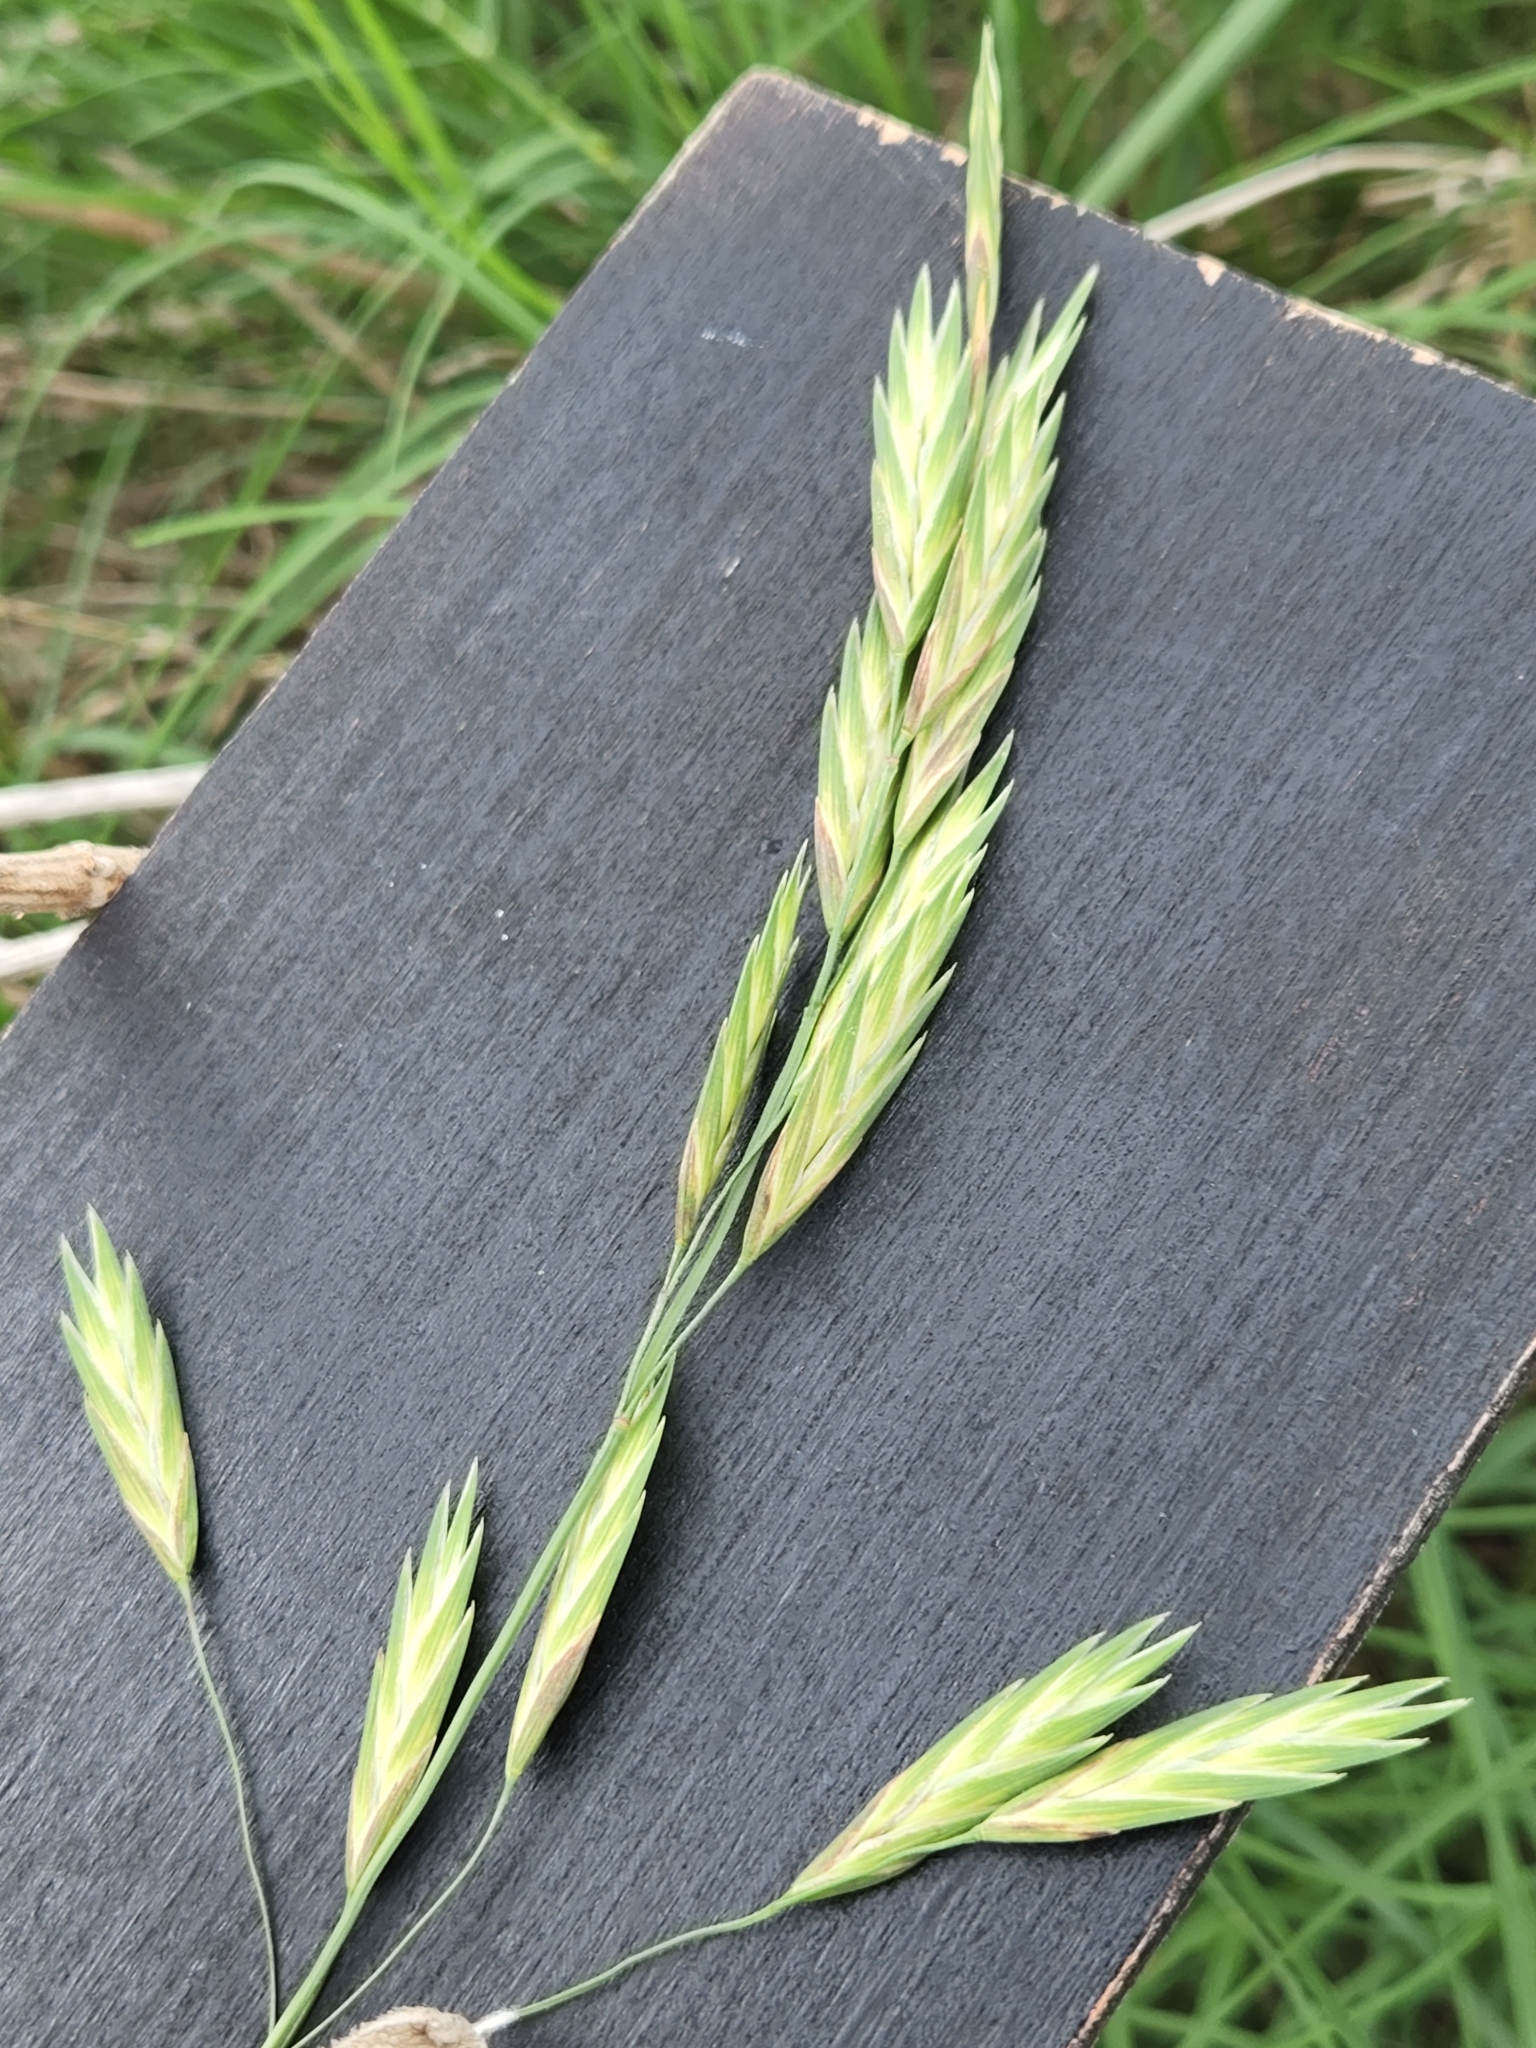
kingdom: Plantae
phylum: Tracheophyta
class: Liliopsida
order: Poales
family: Poaceae
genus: Bromus
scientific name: Bromus catharticus
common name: Rescuegrass
